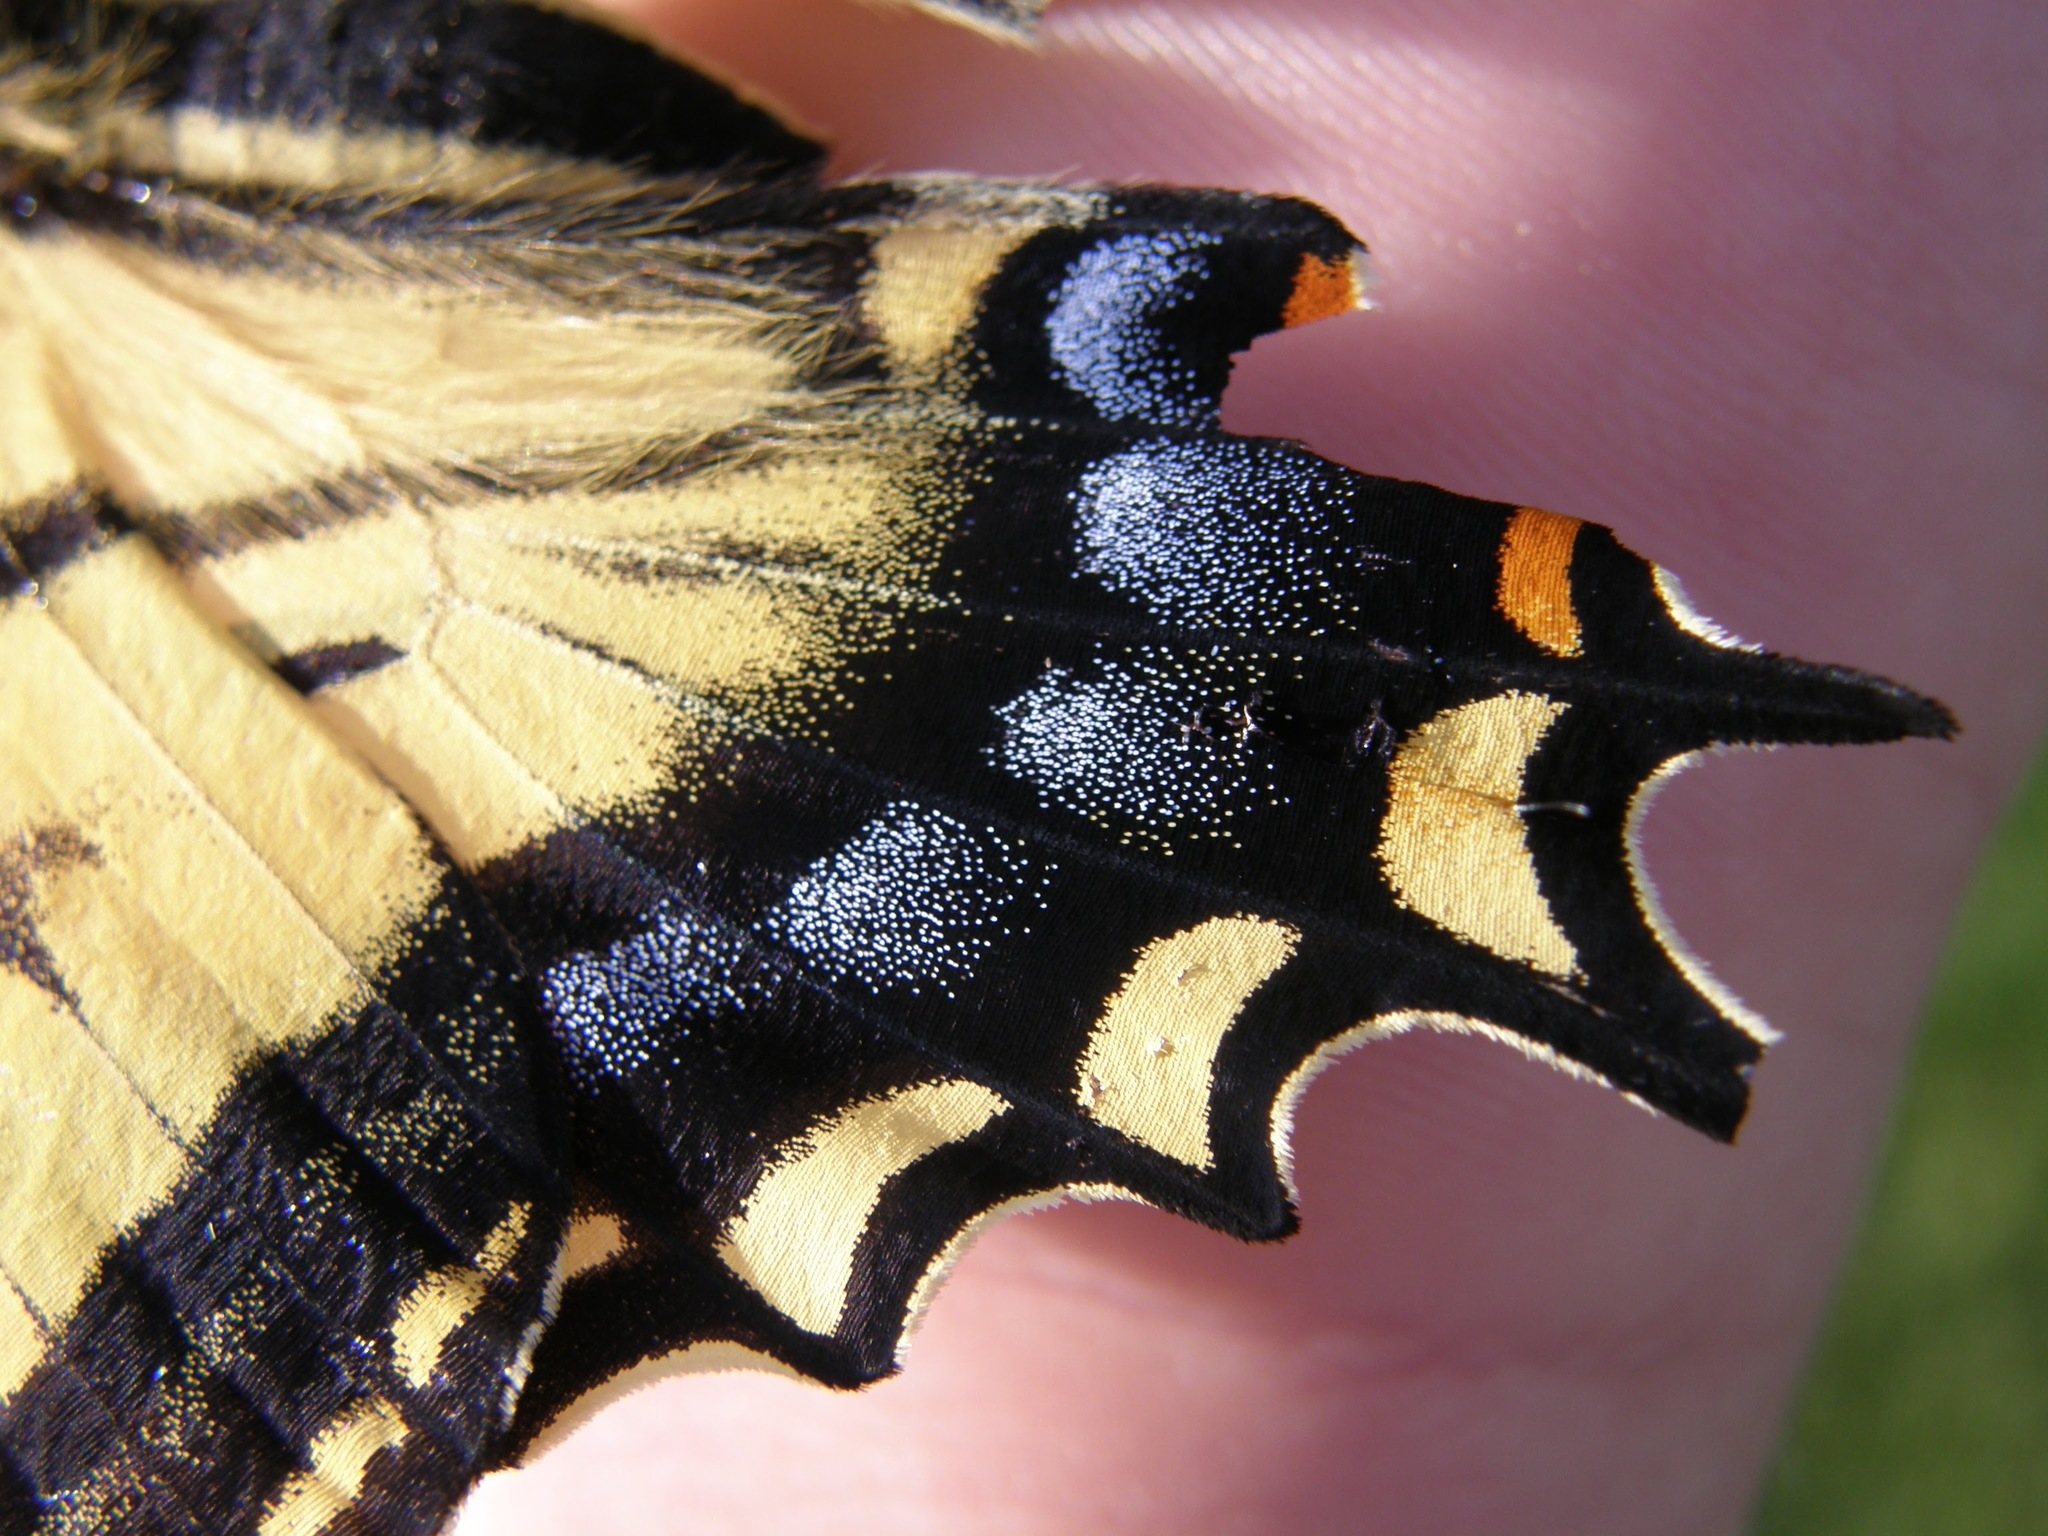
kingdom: Animalia
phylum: Arthropoda
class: Insecta
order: Lepidoptera
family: Papilionidae
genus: Papilio
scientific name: Papilio multicaudata
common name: Two-tailed tiger swallowtail
